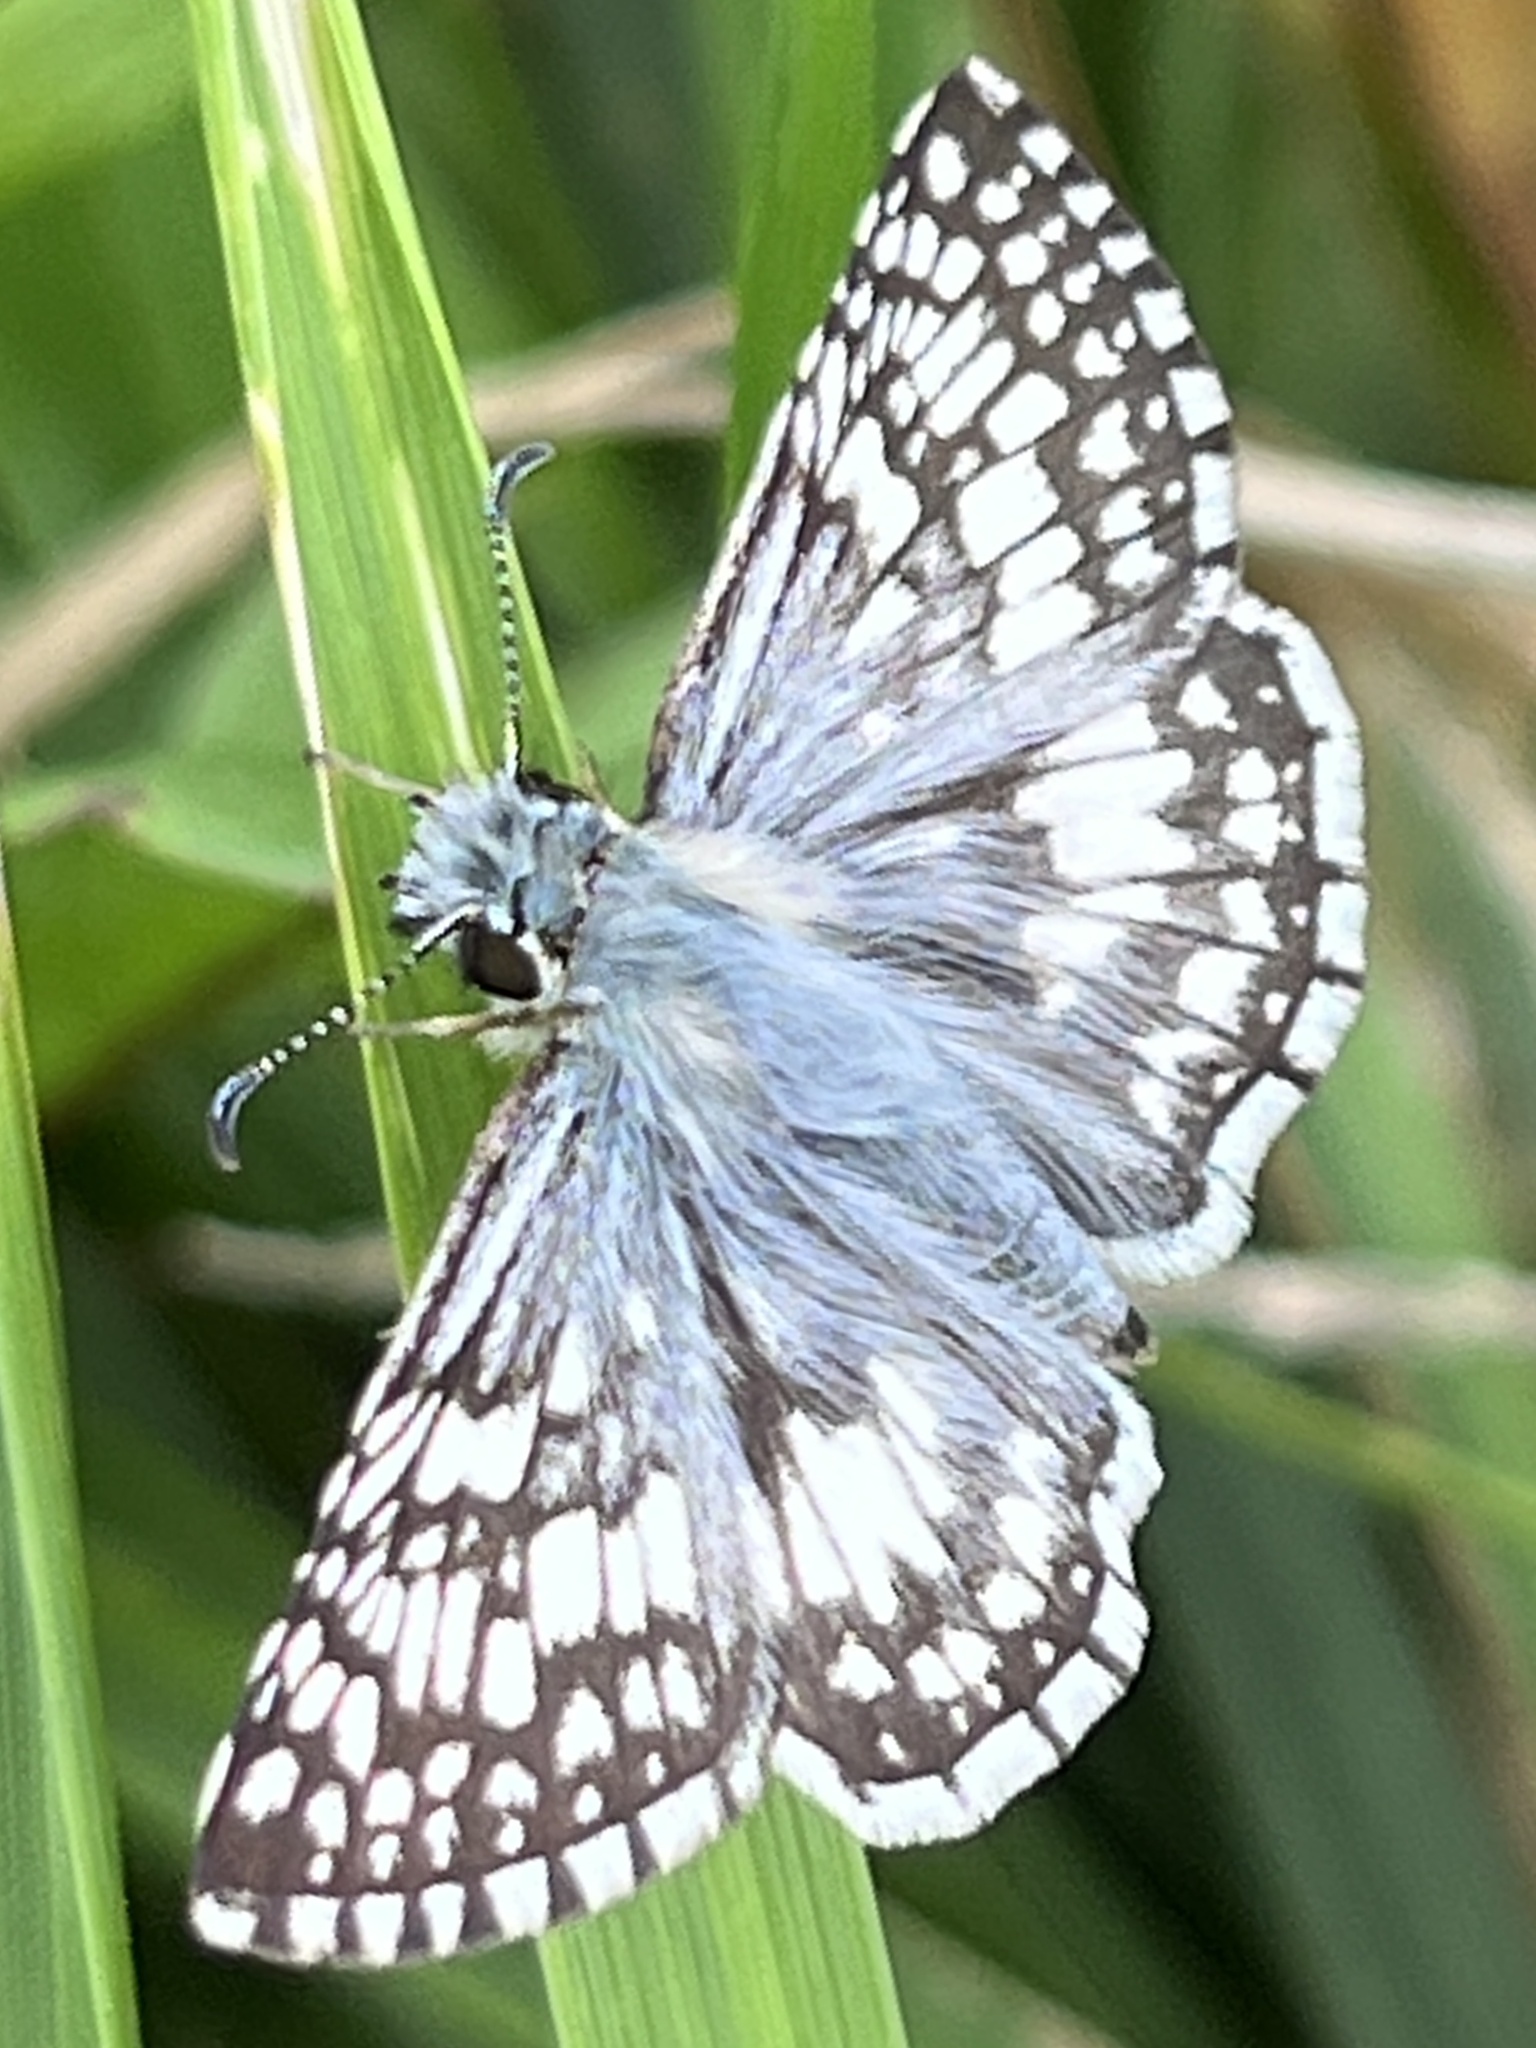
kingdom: Animalia
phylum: Arthropoda
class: Insecta
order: Lepidoptera
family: Hesperiidae
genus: Burnsius
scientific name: Burnsius communis
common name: Common checkered-skipper
